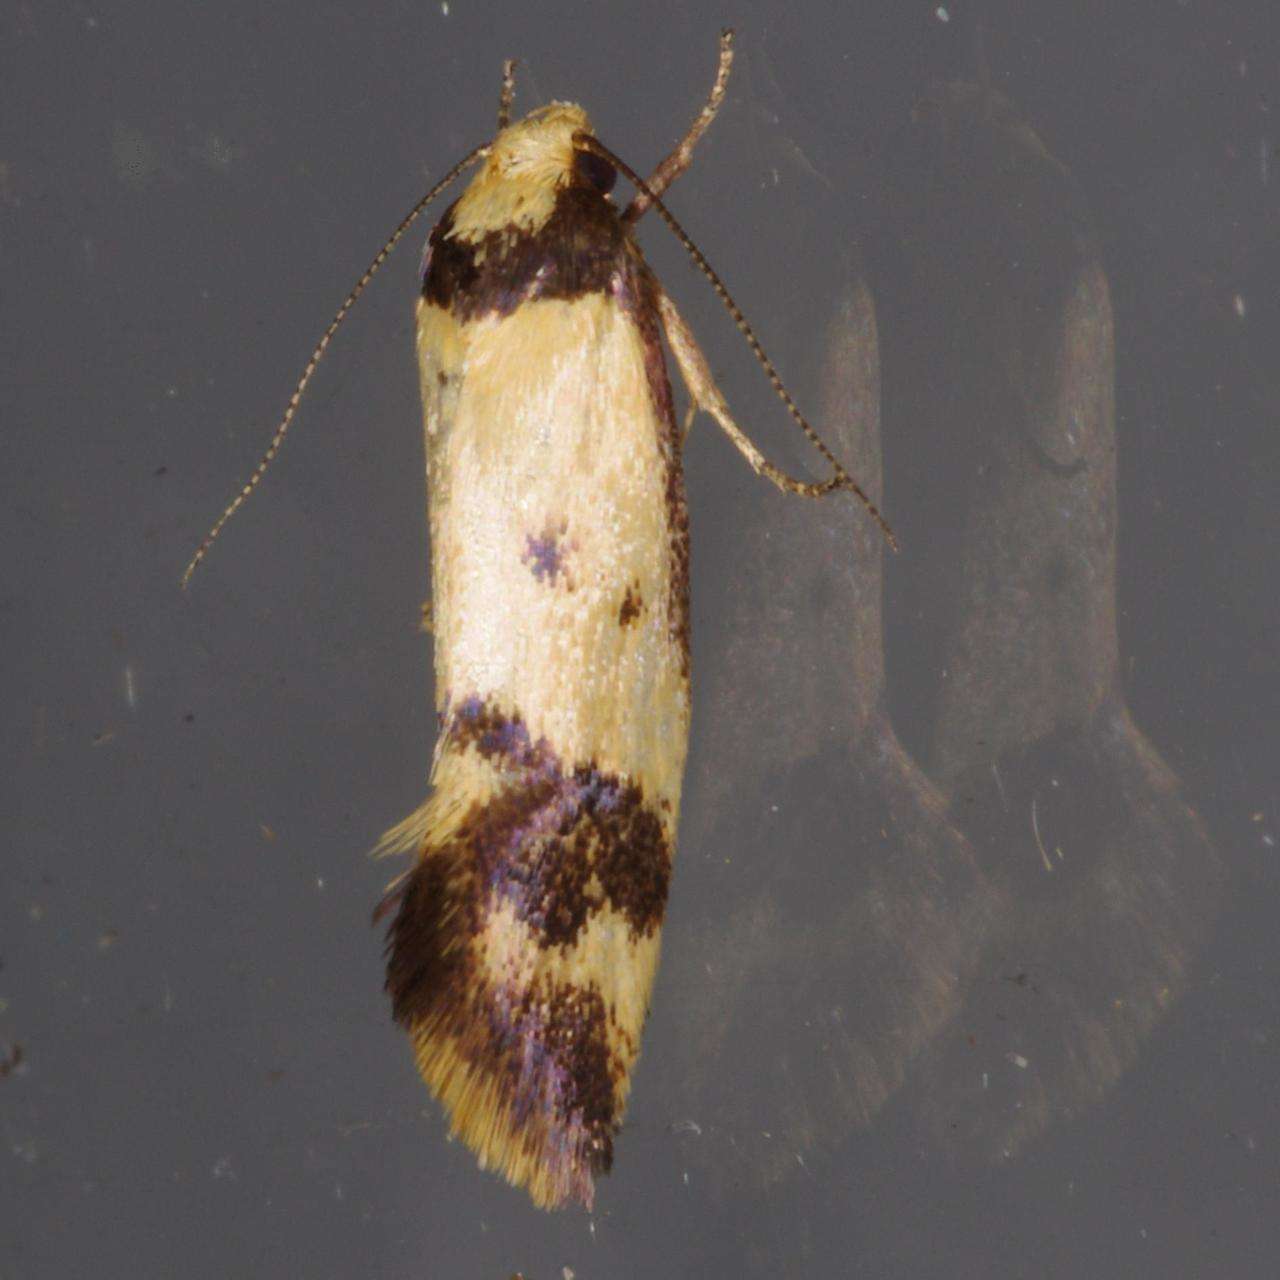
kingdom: Animalia
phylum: Arthropoda
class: Insecta
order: Lepidoptera
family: Oecophoridae
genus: Olbonoma
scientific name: Olbonoma triptycha
